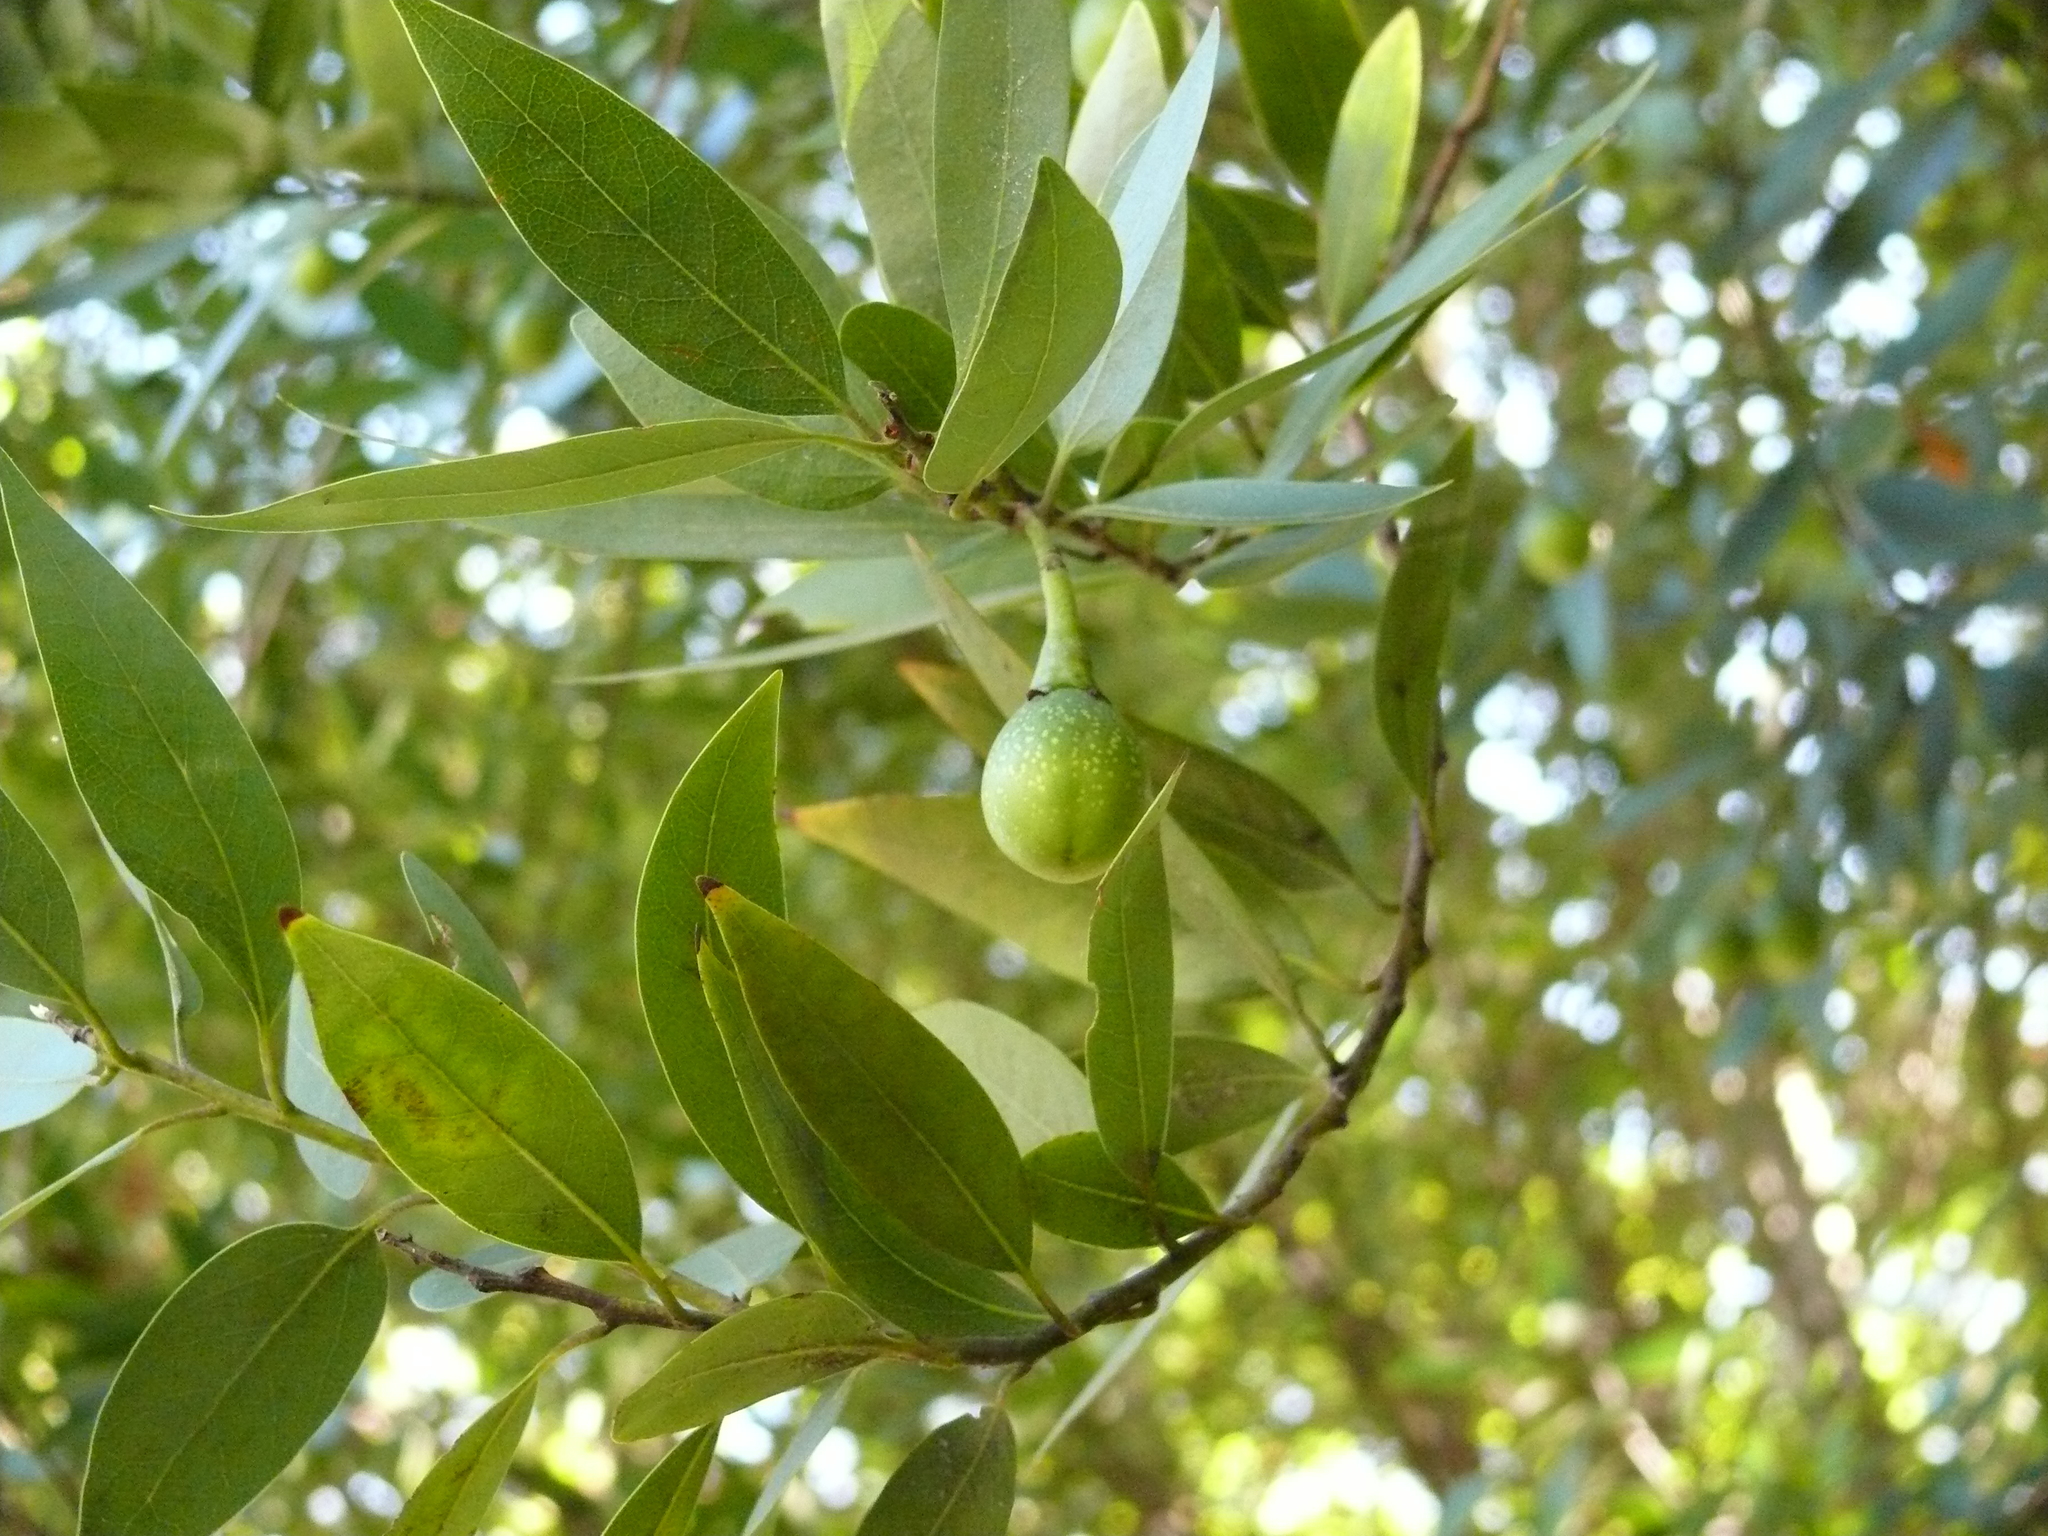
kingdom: Plantae
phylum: Tracheophyta
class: Magnoliopsida
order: Laurales
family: Lauraceae
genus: Umbellularia
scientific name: Umbellularia californica
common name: California bay
